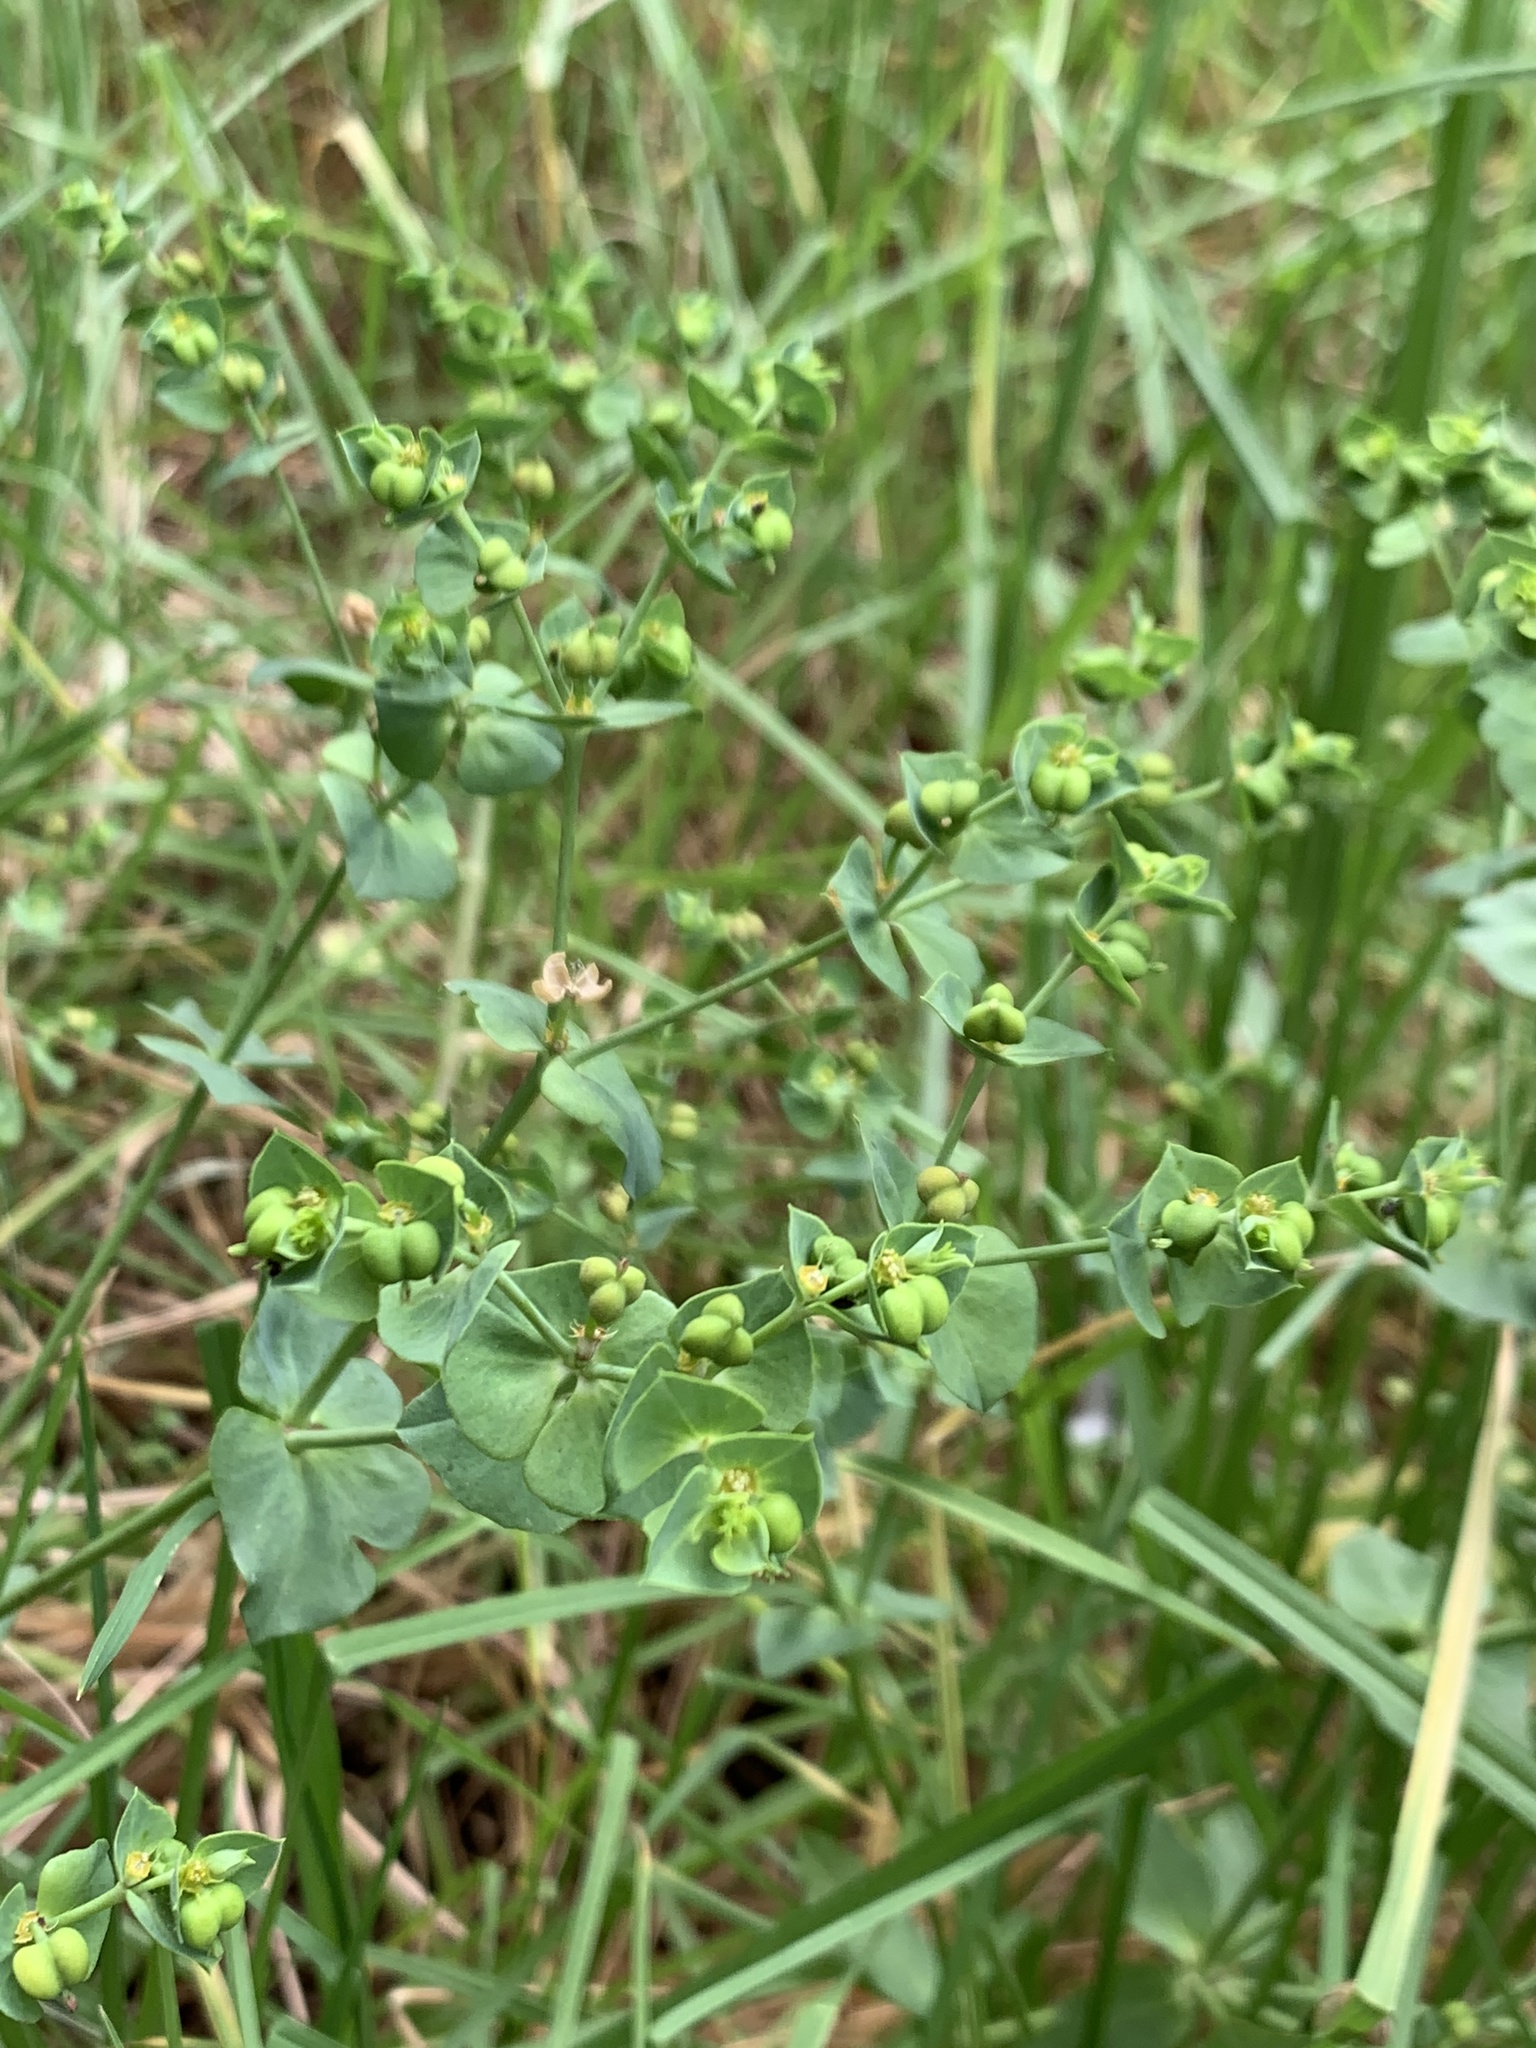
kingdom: Plantae
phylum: Tracheophyta
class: Magnoliopsida
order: Malpighiales
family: Euphorbiaceae
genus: Euphorbia
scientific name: Euphorbia terracina
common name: Geraldton carnation weed
